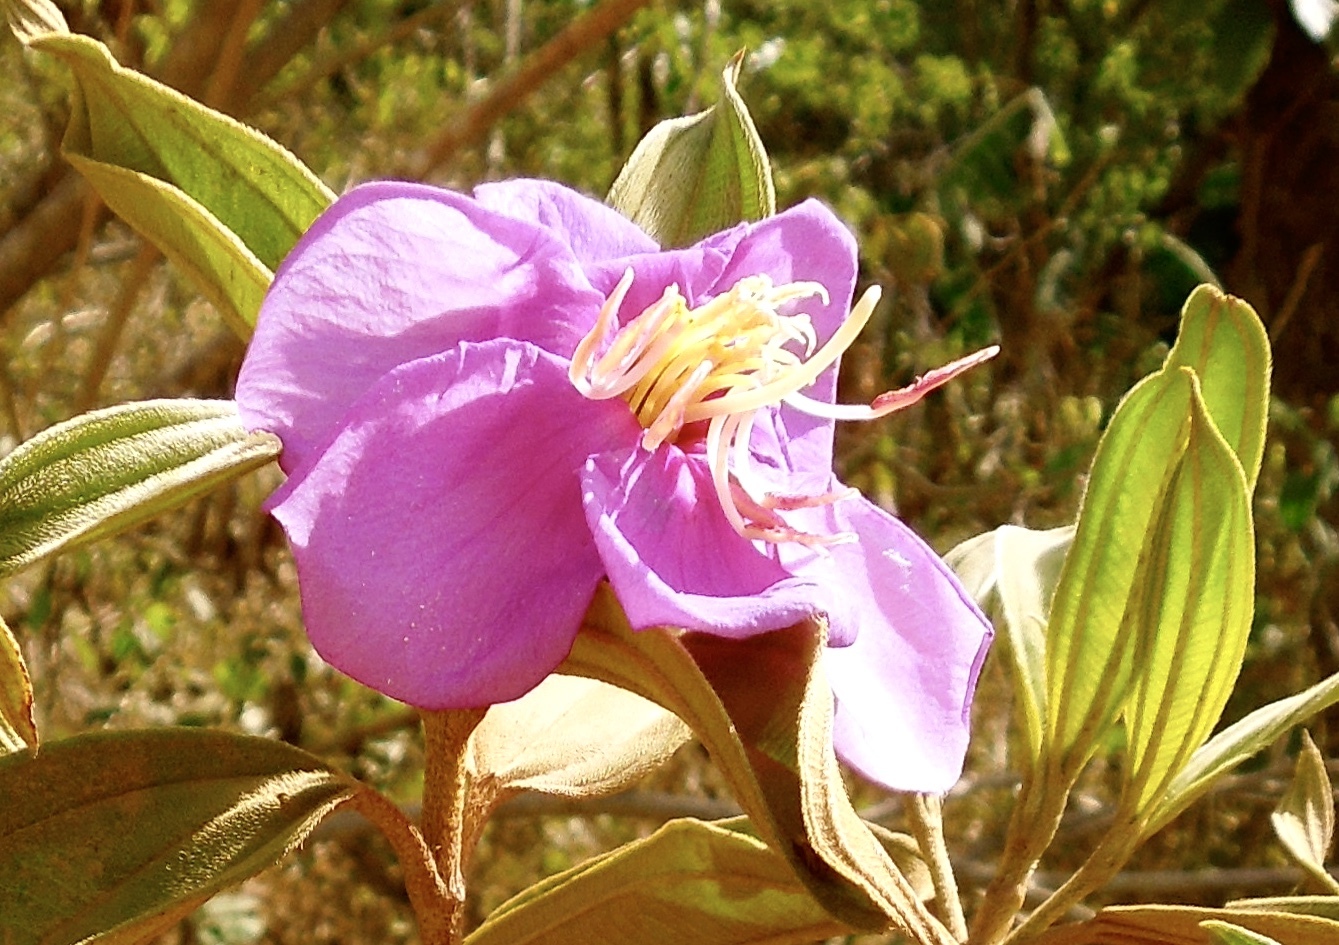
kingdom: Plantae
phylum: Tracheophyta
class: Magnoliopsida
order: Myrtales
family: Melastomataceae
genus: Melastoma
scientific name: Melastoma malabathricum
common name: Indian-rhododendron
